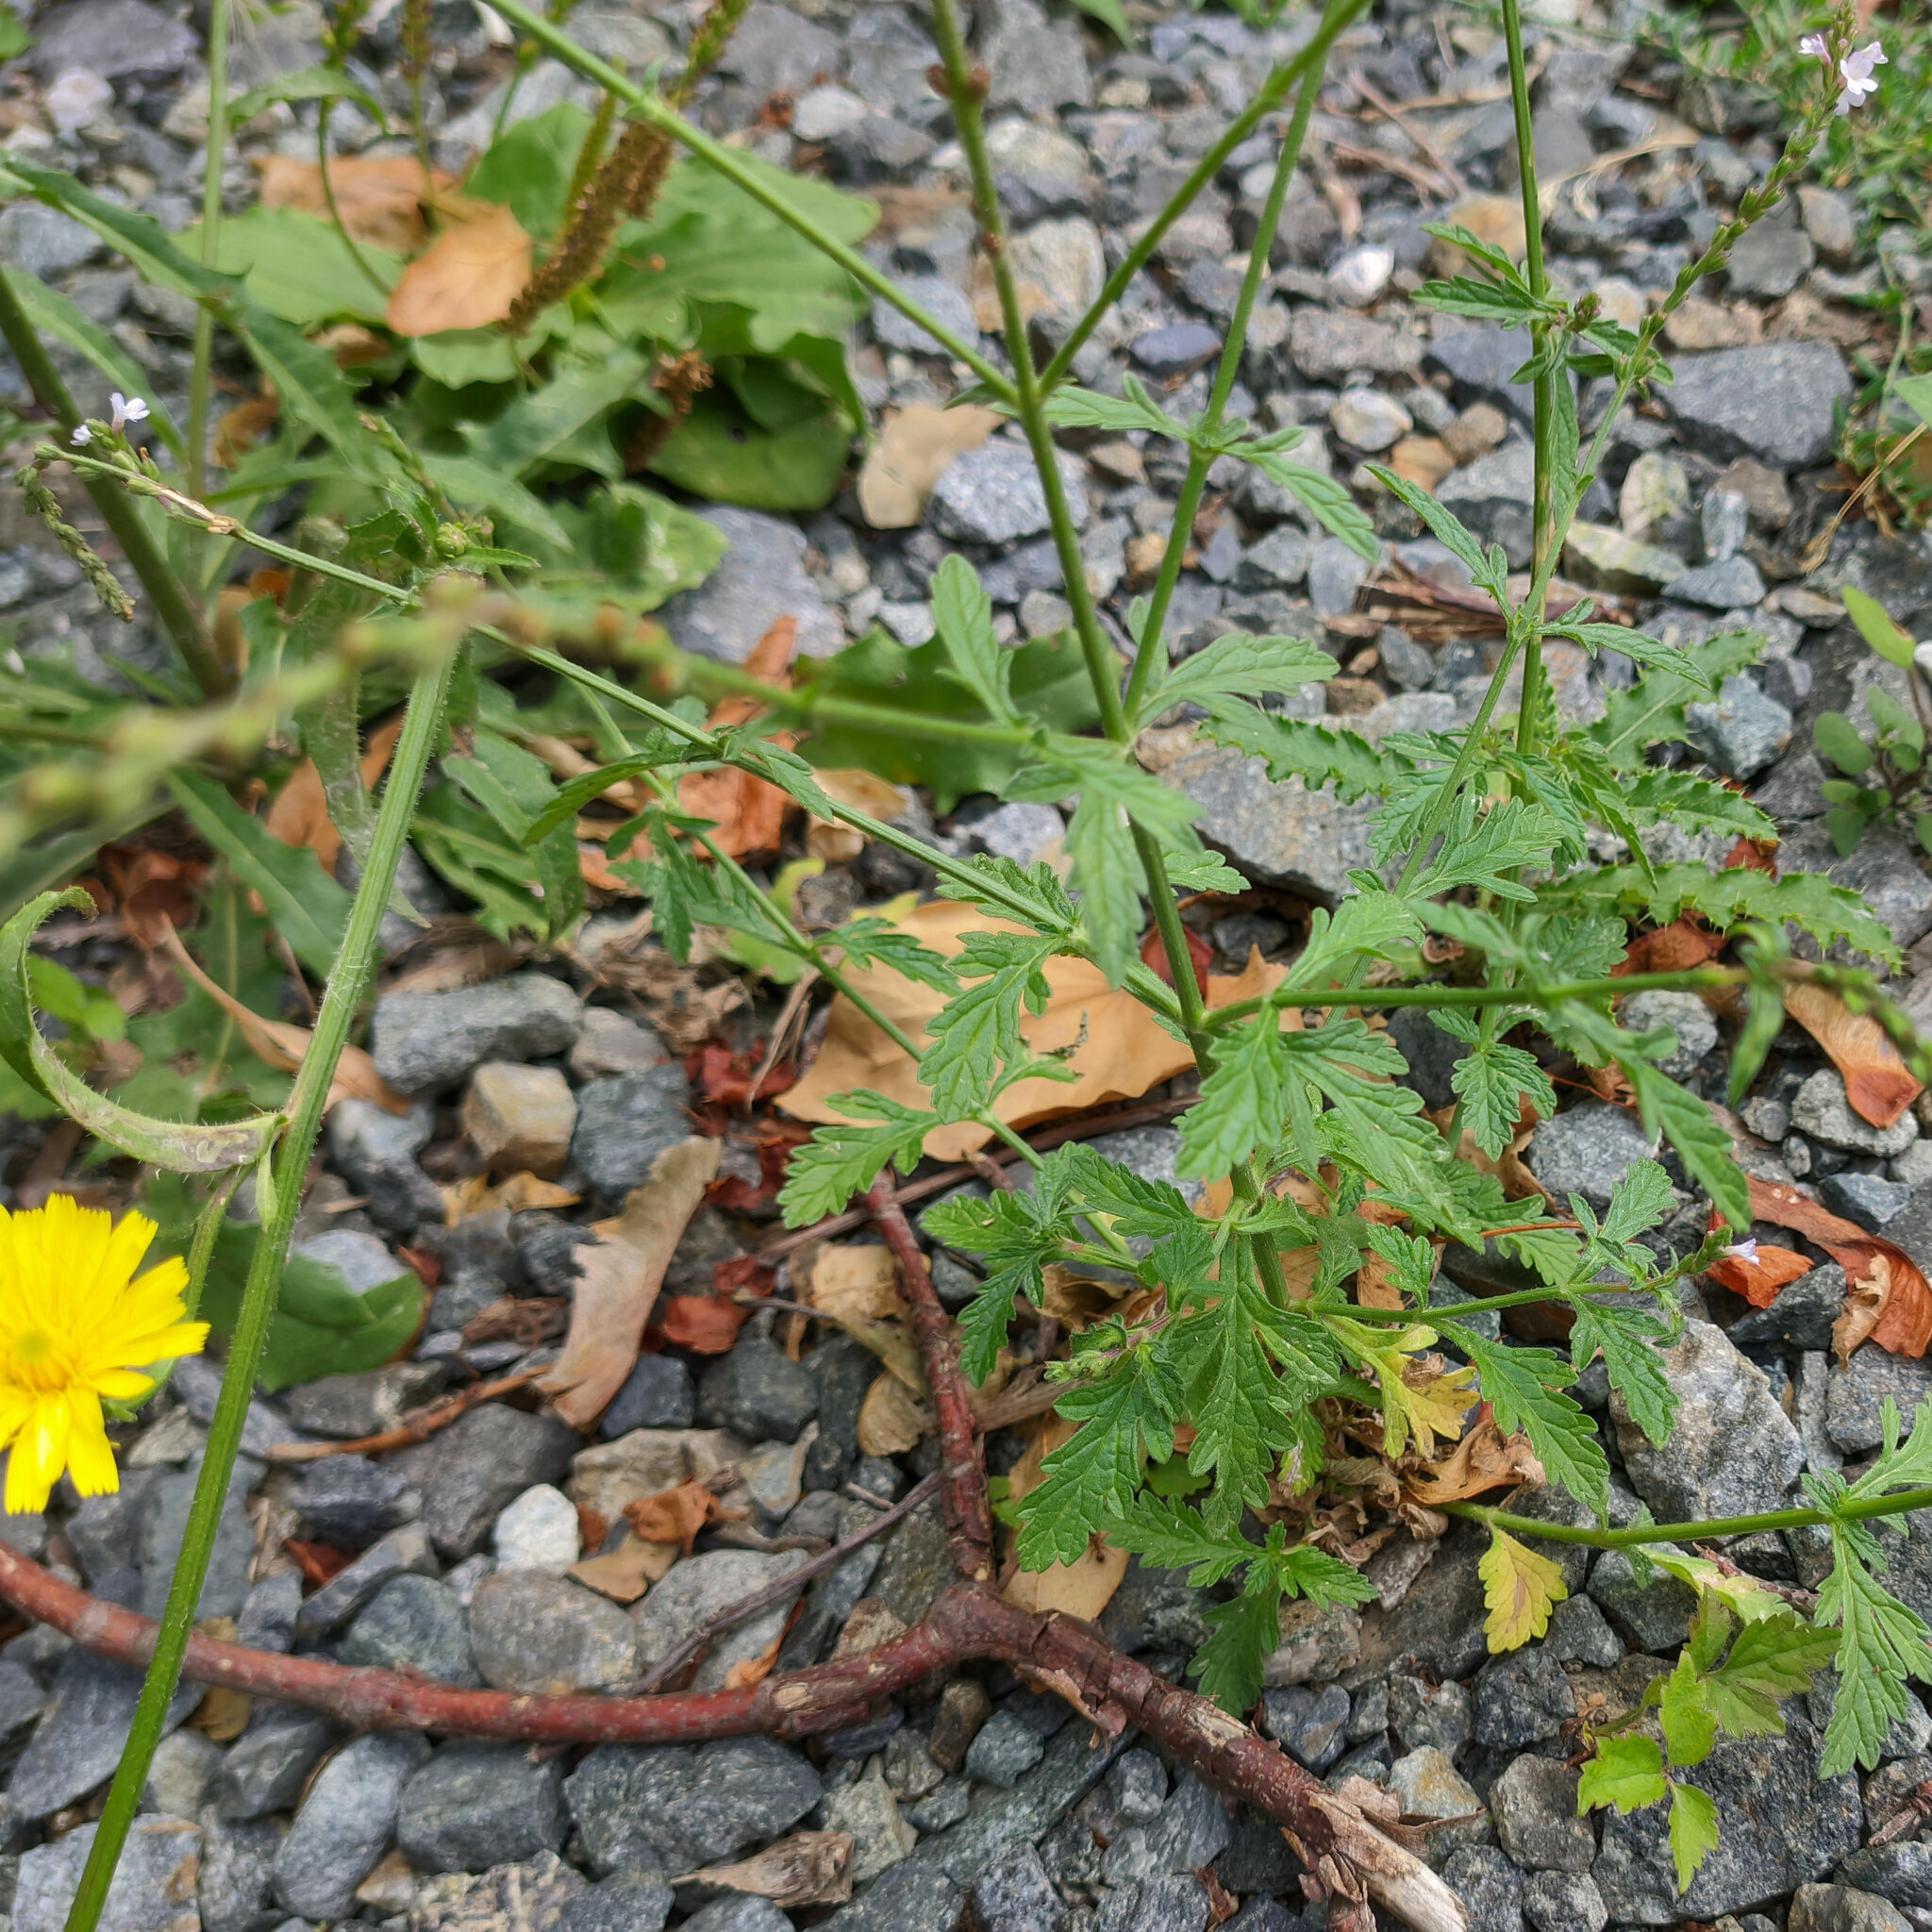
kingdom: Plantae
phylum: Tracheophyta
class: Magnoliopsida
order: Lamiales
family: Verbenaceae
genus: Verbena
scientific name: Verbena officinalis
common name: Vervain
